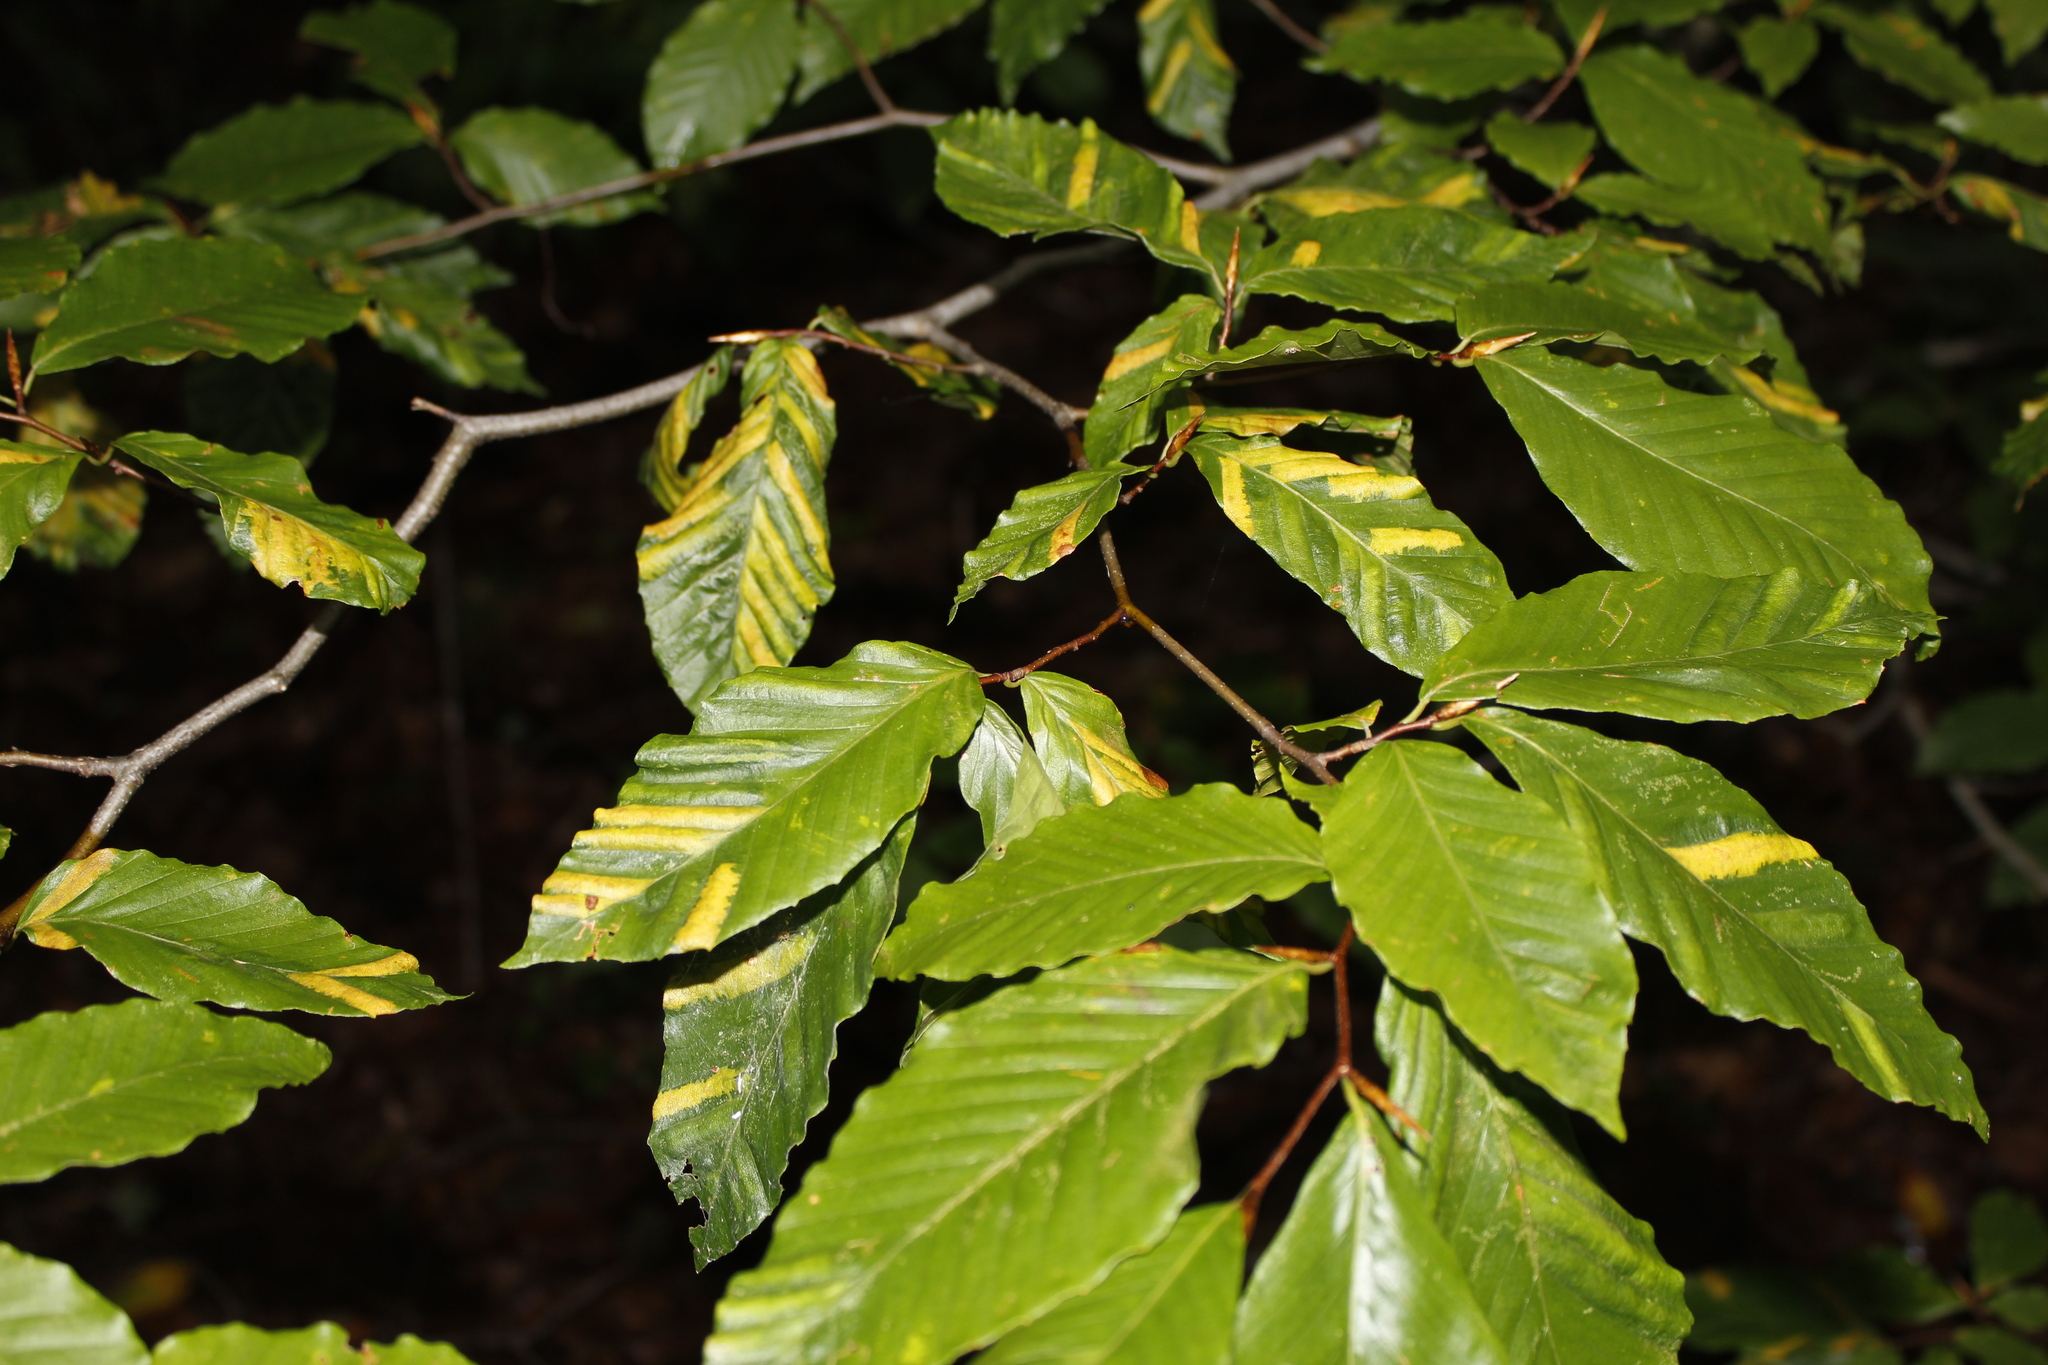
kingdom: Plantae
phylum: Tracheophyta
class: Magnoliopsida
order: Fagales
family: Fagaceae
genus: Fagus
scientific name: Fagus grandifolia
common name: American beech
